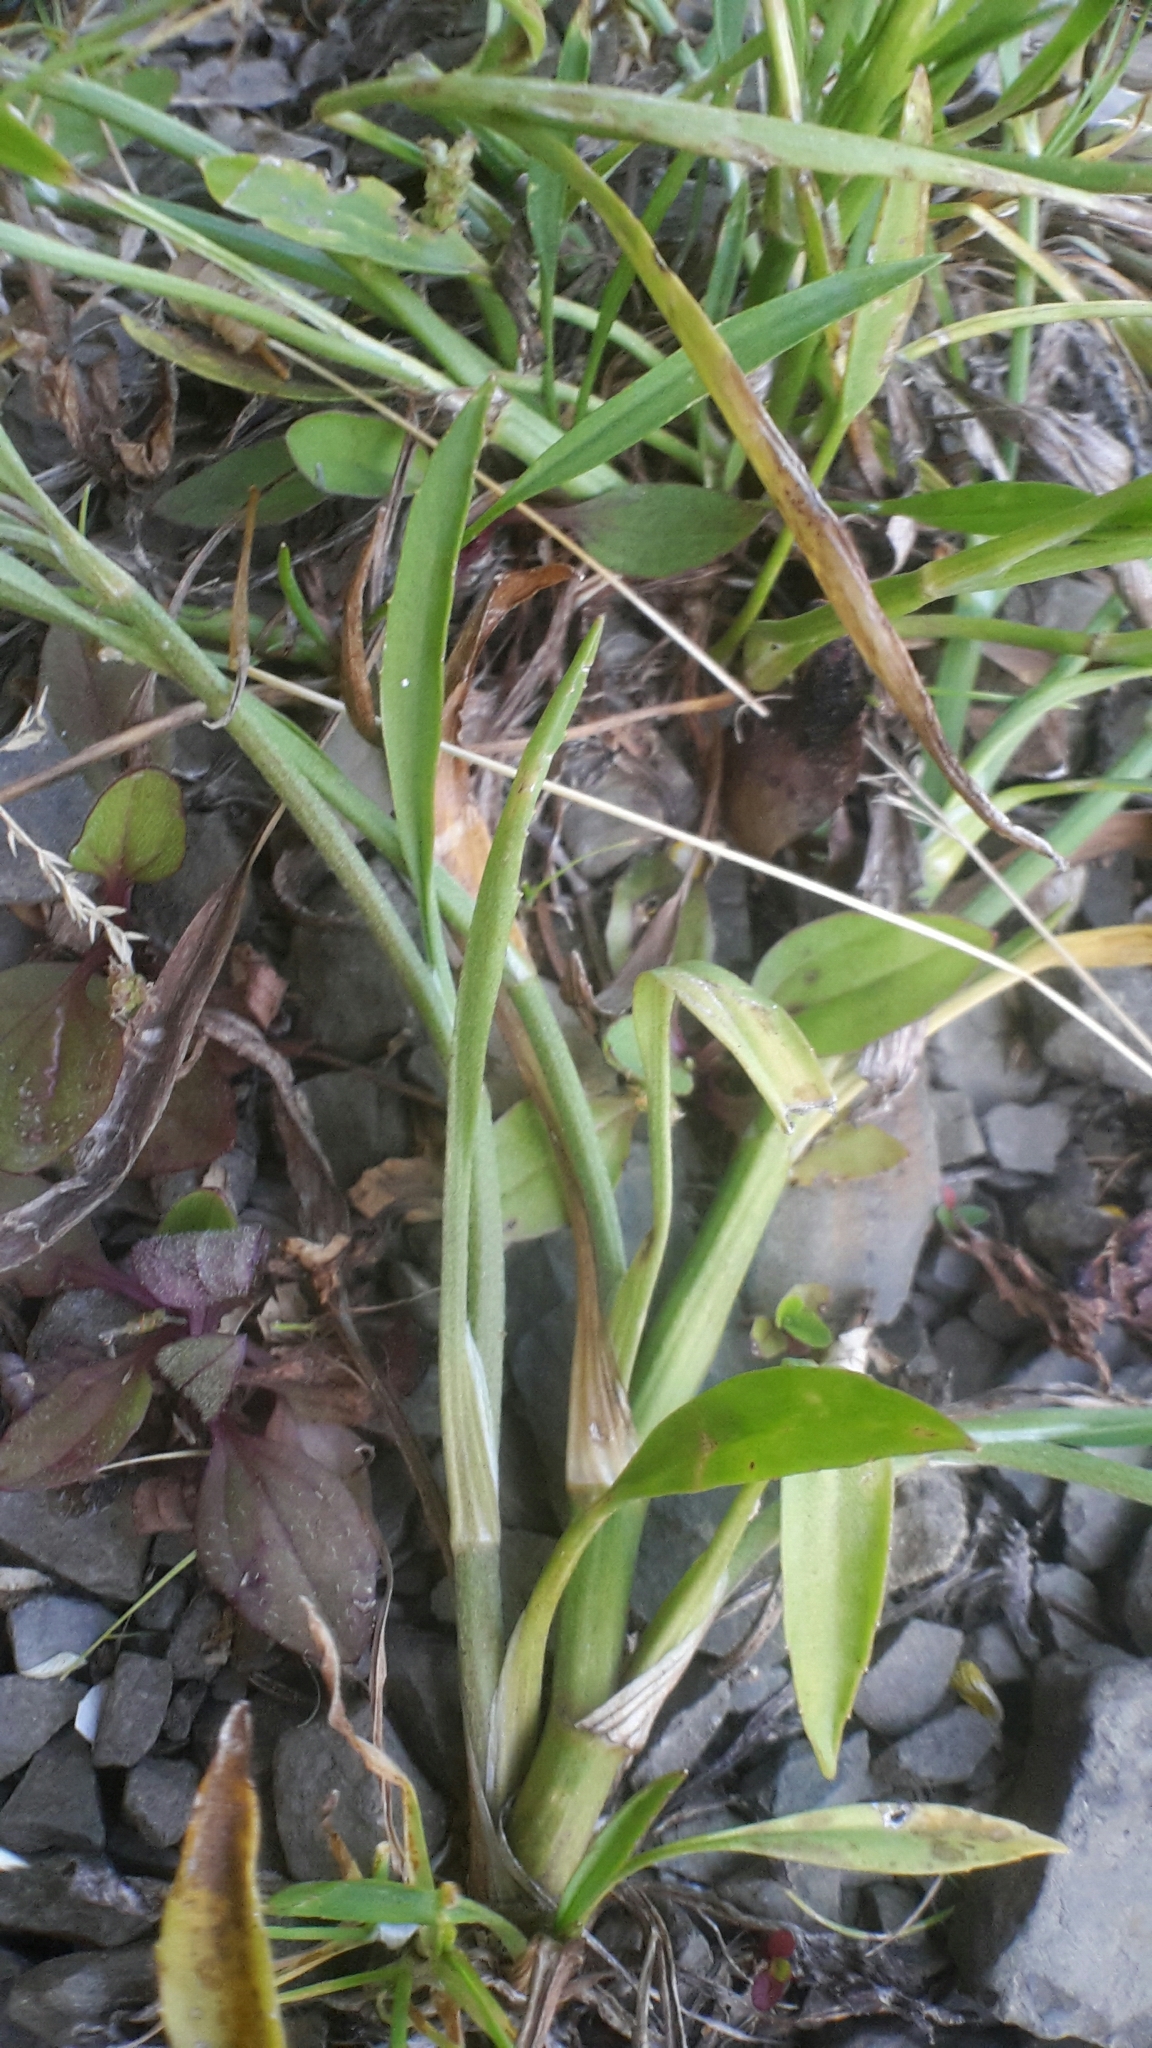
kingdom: Plantae
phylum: Tracheophyta
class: Magnoliopsida
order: Ranunculales
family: Ranunculaceae
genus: Ranunculus
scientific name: Ranunculus flammula
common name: Lesser spearwort
